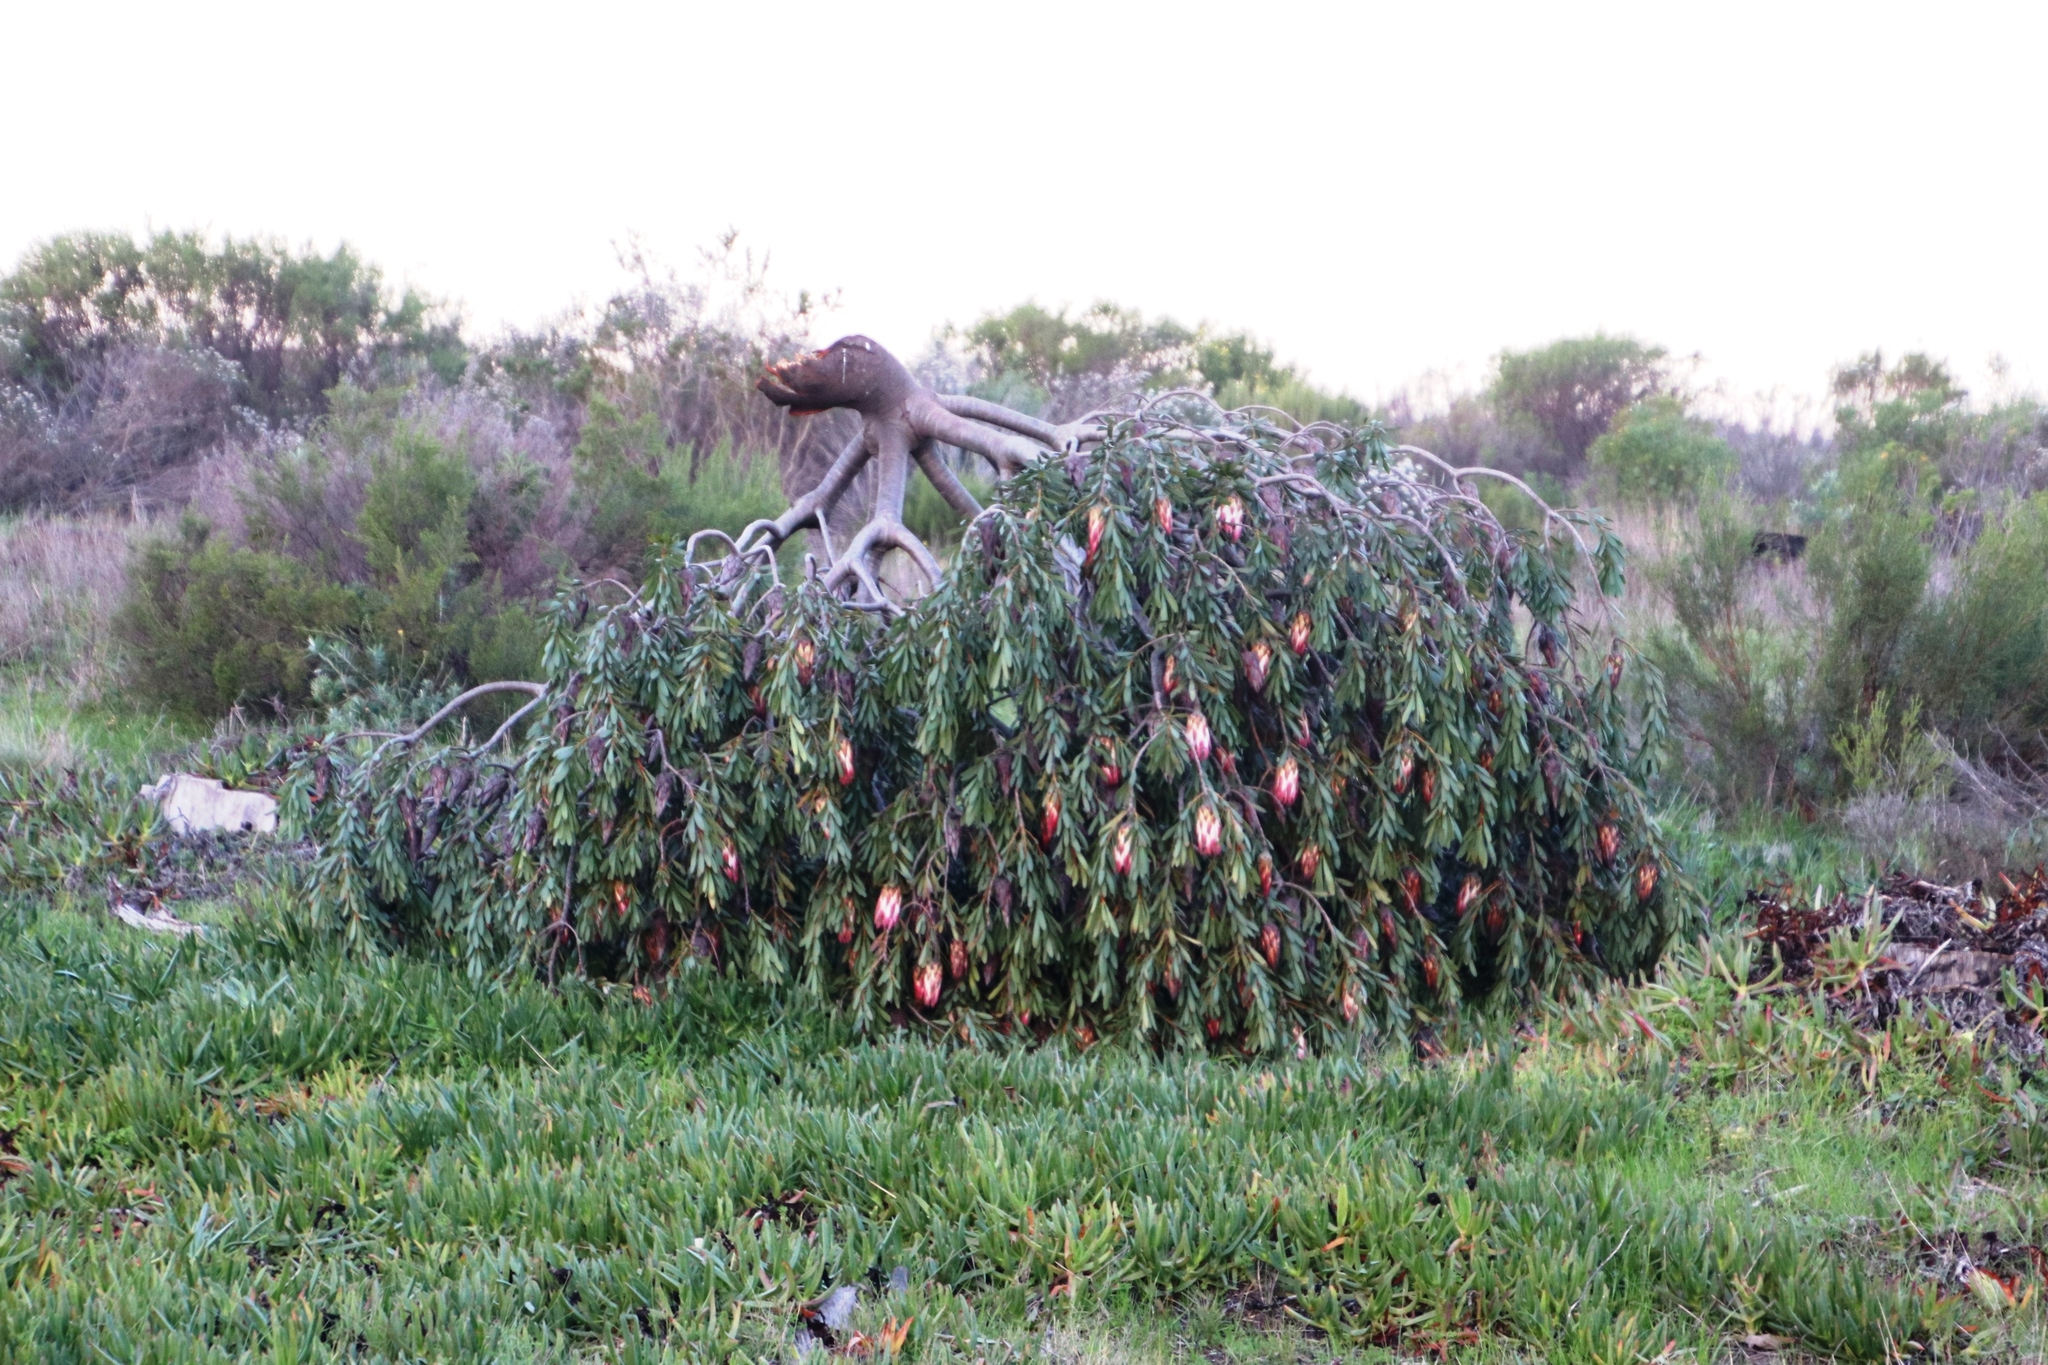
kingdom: Plantae
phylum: Tracheophyta
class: Magnoliopsida
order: Proteales
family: Proteaceae
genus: Protea
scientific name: Protea repens
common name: Sugarbush
